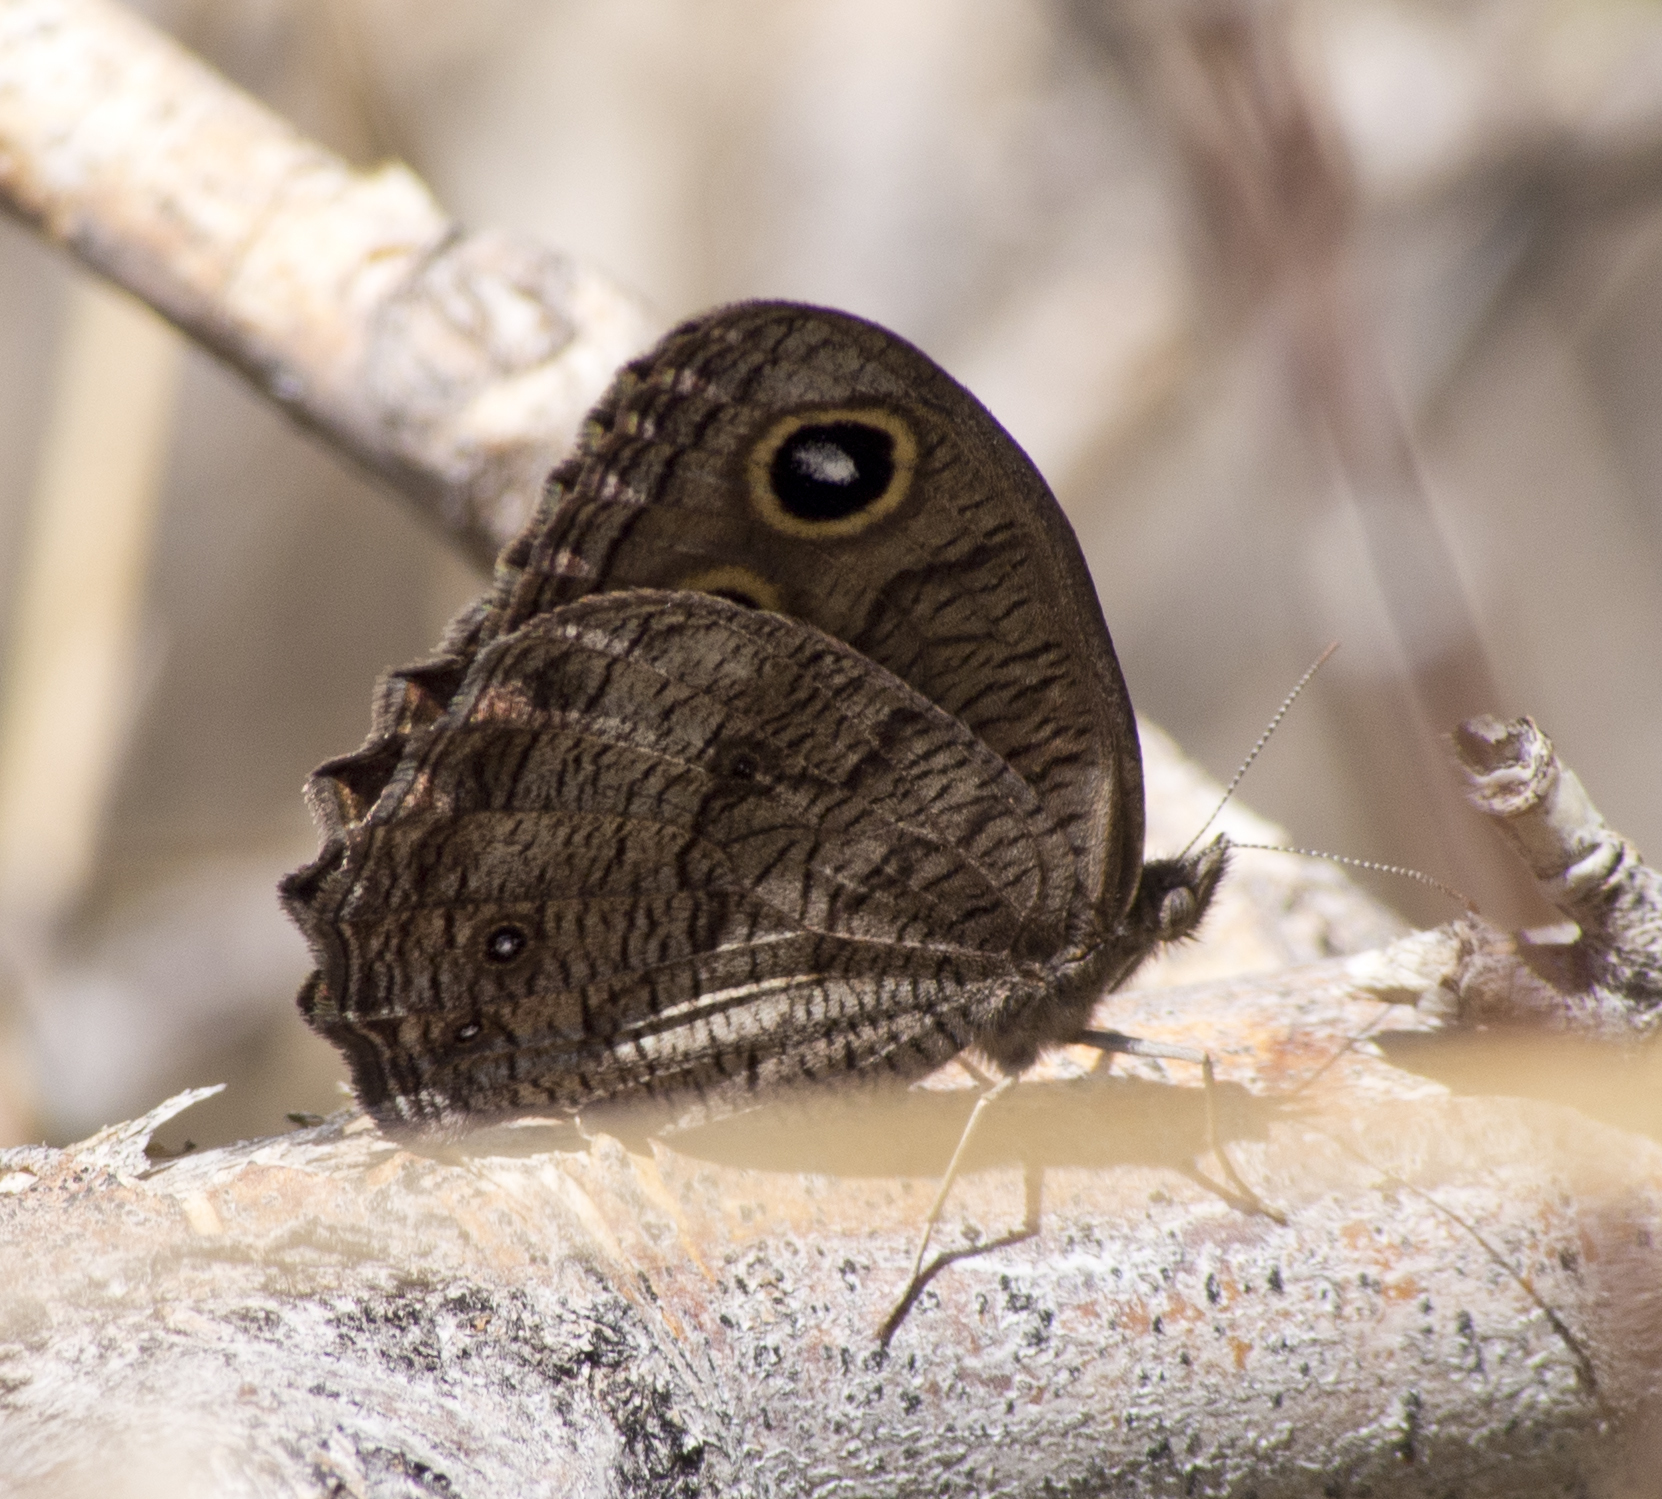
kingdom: Animalia
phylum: Arthropoda
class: Insecta
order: Lepidoptera
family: Nymphalidae
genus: Cercyonis
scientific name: Cercyonis pegala
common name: Common wood-nymph
